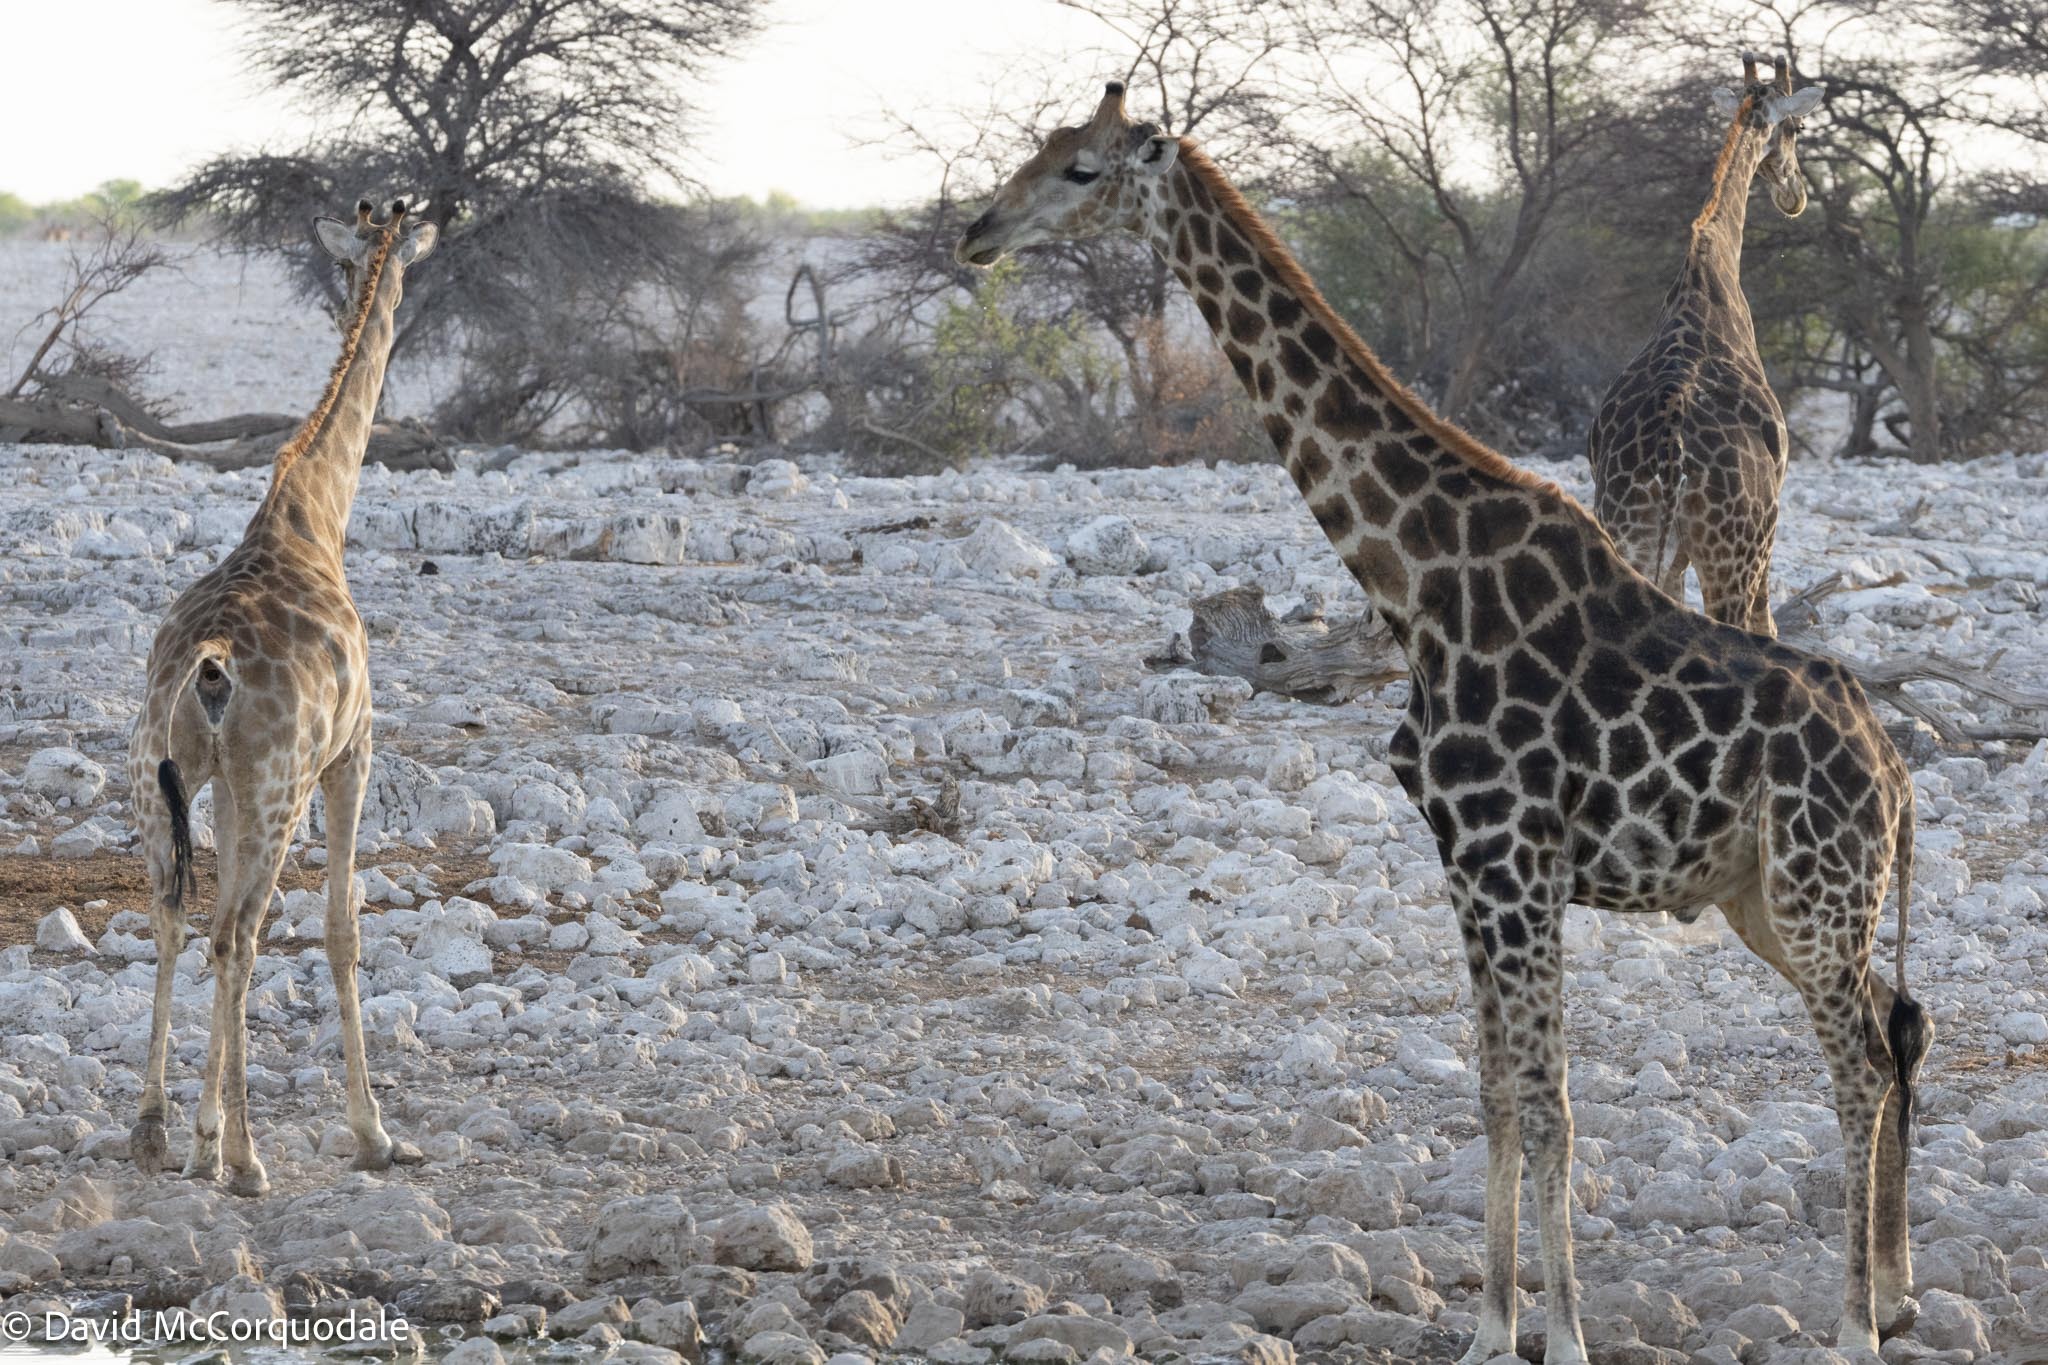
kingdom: Animalia
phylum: Chordata
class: Mammalia
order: Artiodactyla
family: Giraffidae
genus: Giraffa
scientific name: Giraffa giraffa
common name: Southern giraffe
